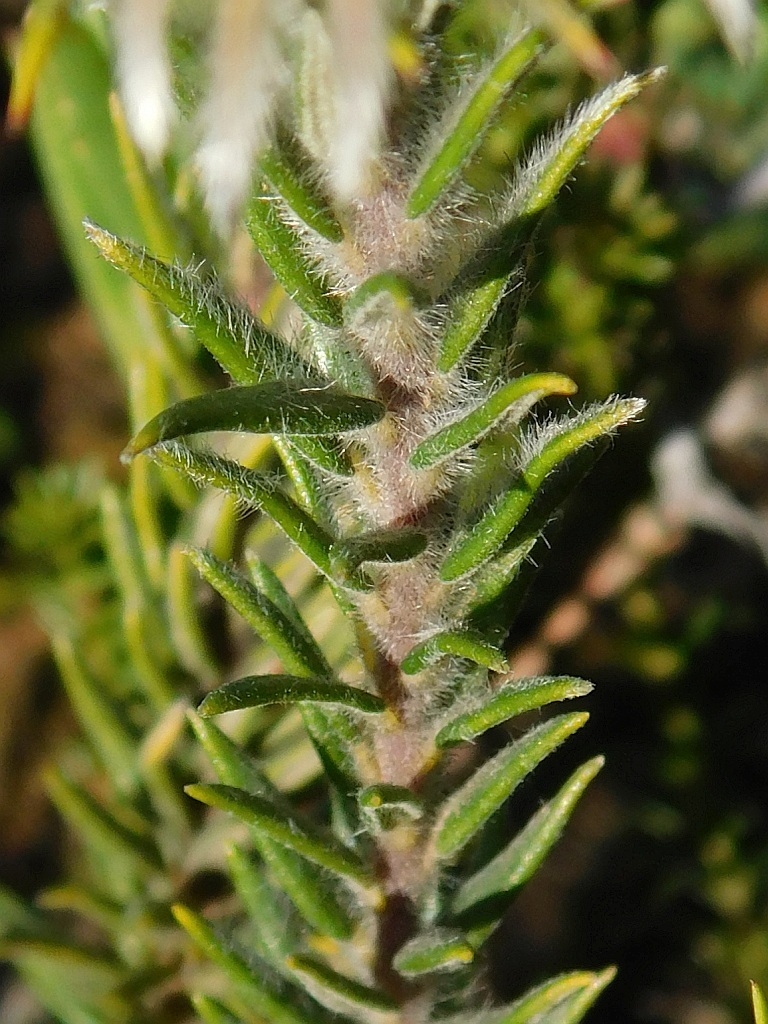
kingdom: Plantae
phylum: Tracheophyta
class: Magnoliopsida
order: Rosales
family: Rhamnaceae
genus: Phylica
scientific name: Phylica calcarata
